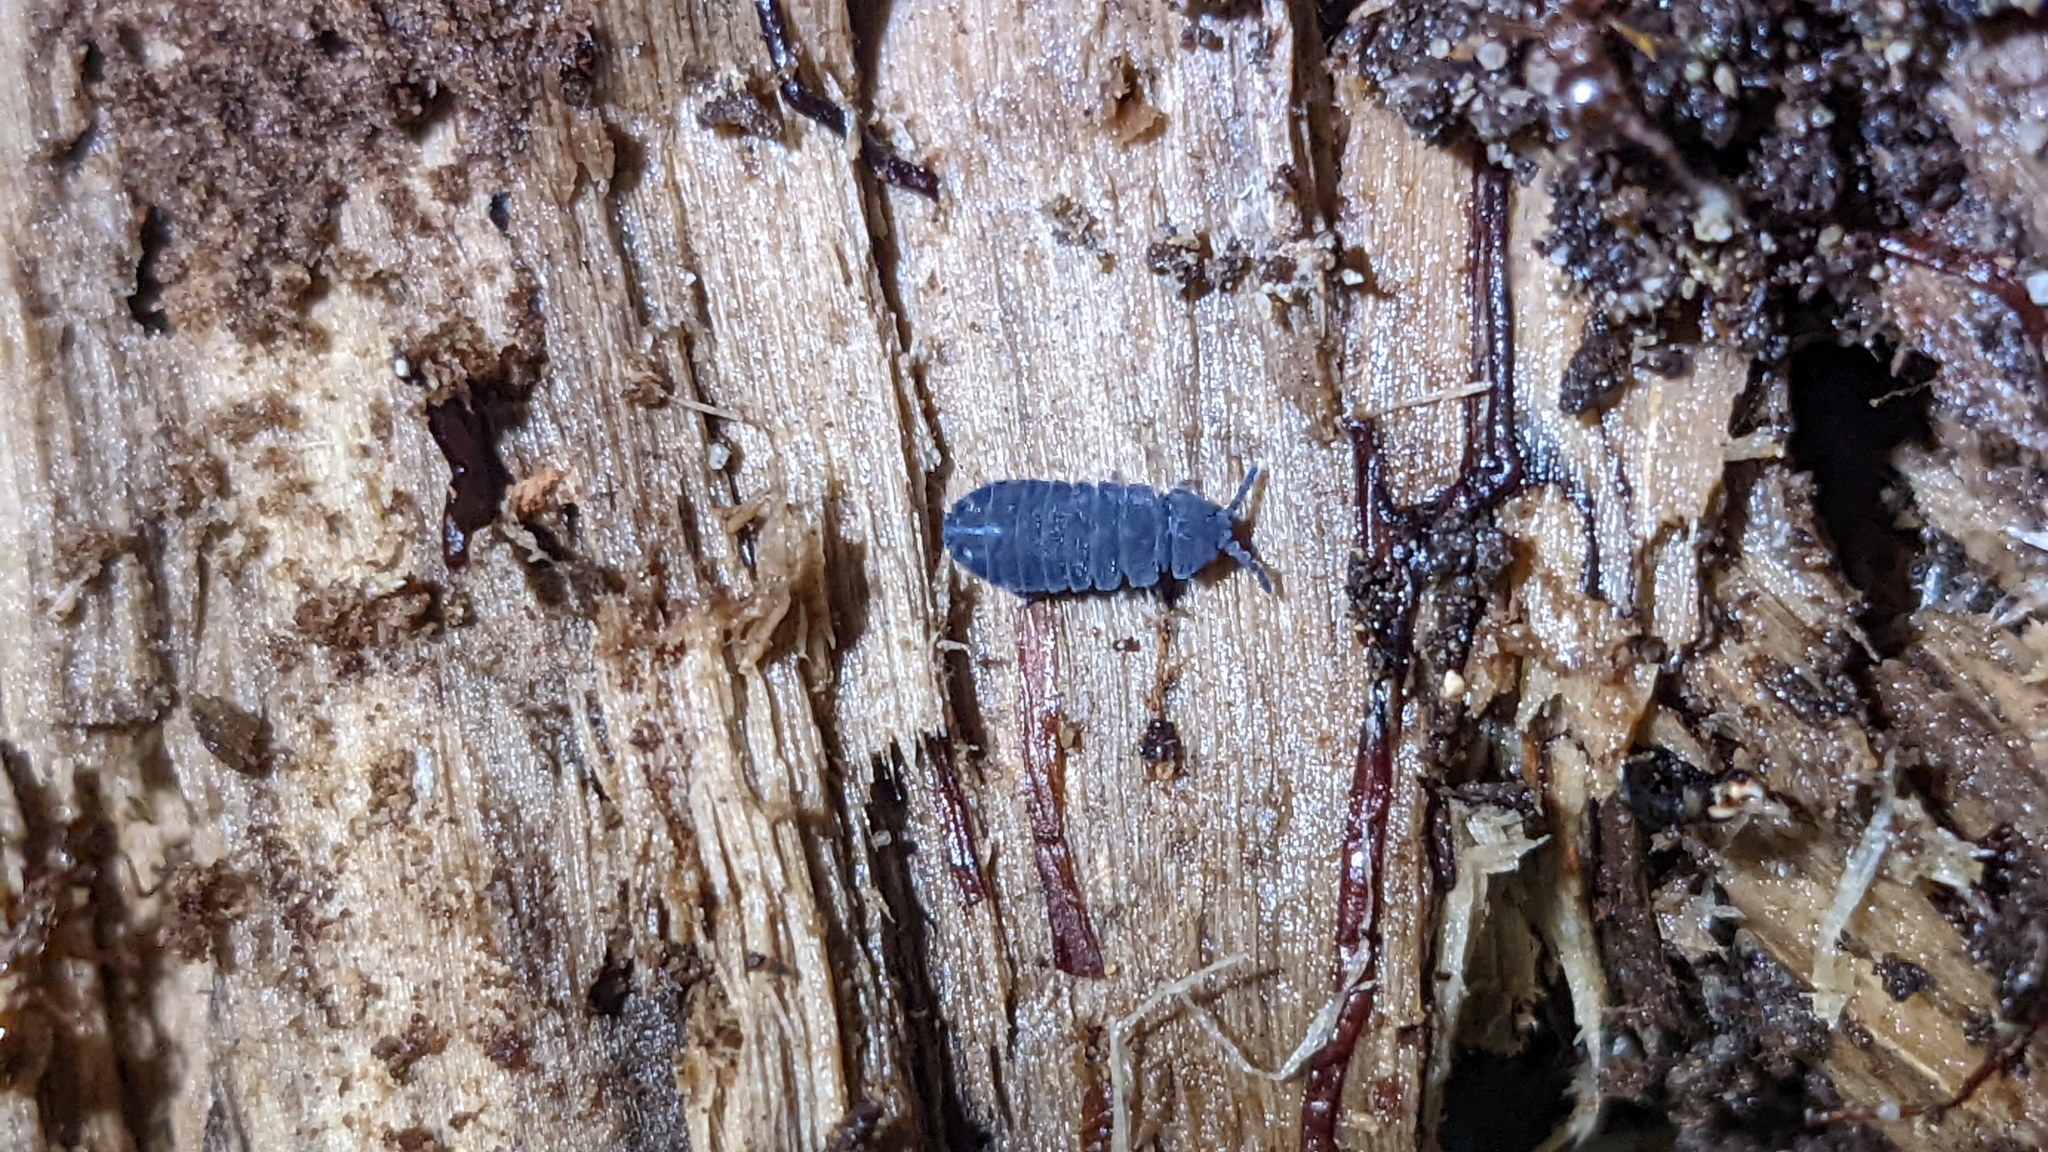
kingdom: Animalia
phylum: Arthropoda
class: Collembola
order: Poduromorpha
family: Onychiuridae
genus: Tetrodontophora
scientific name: Tetrodontophora bielanensis
